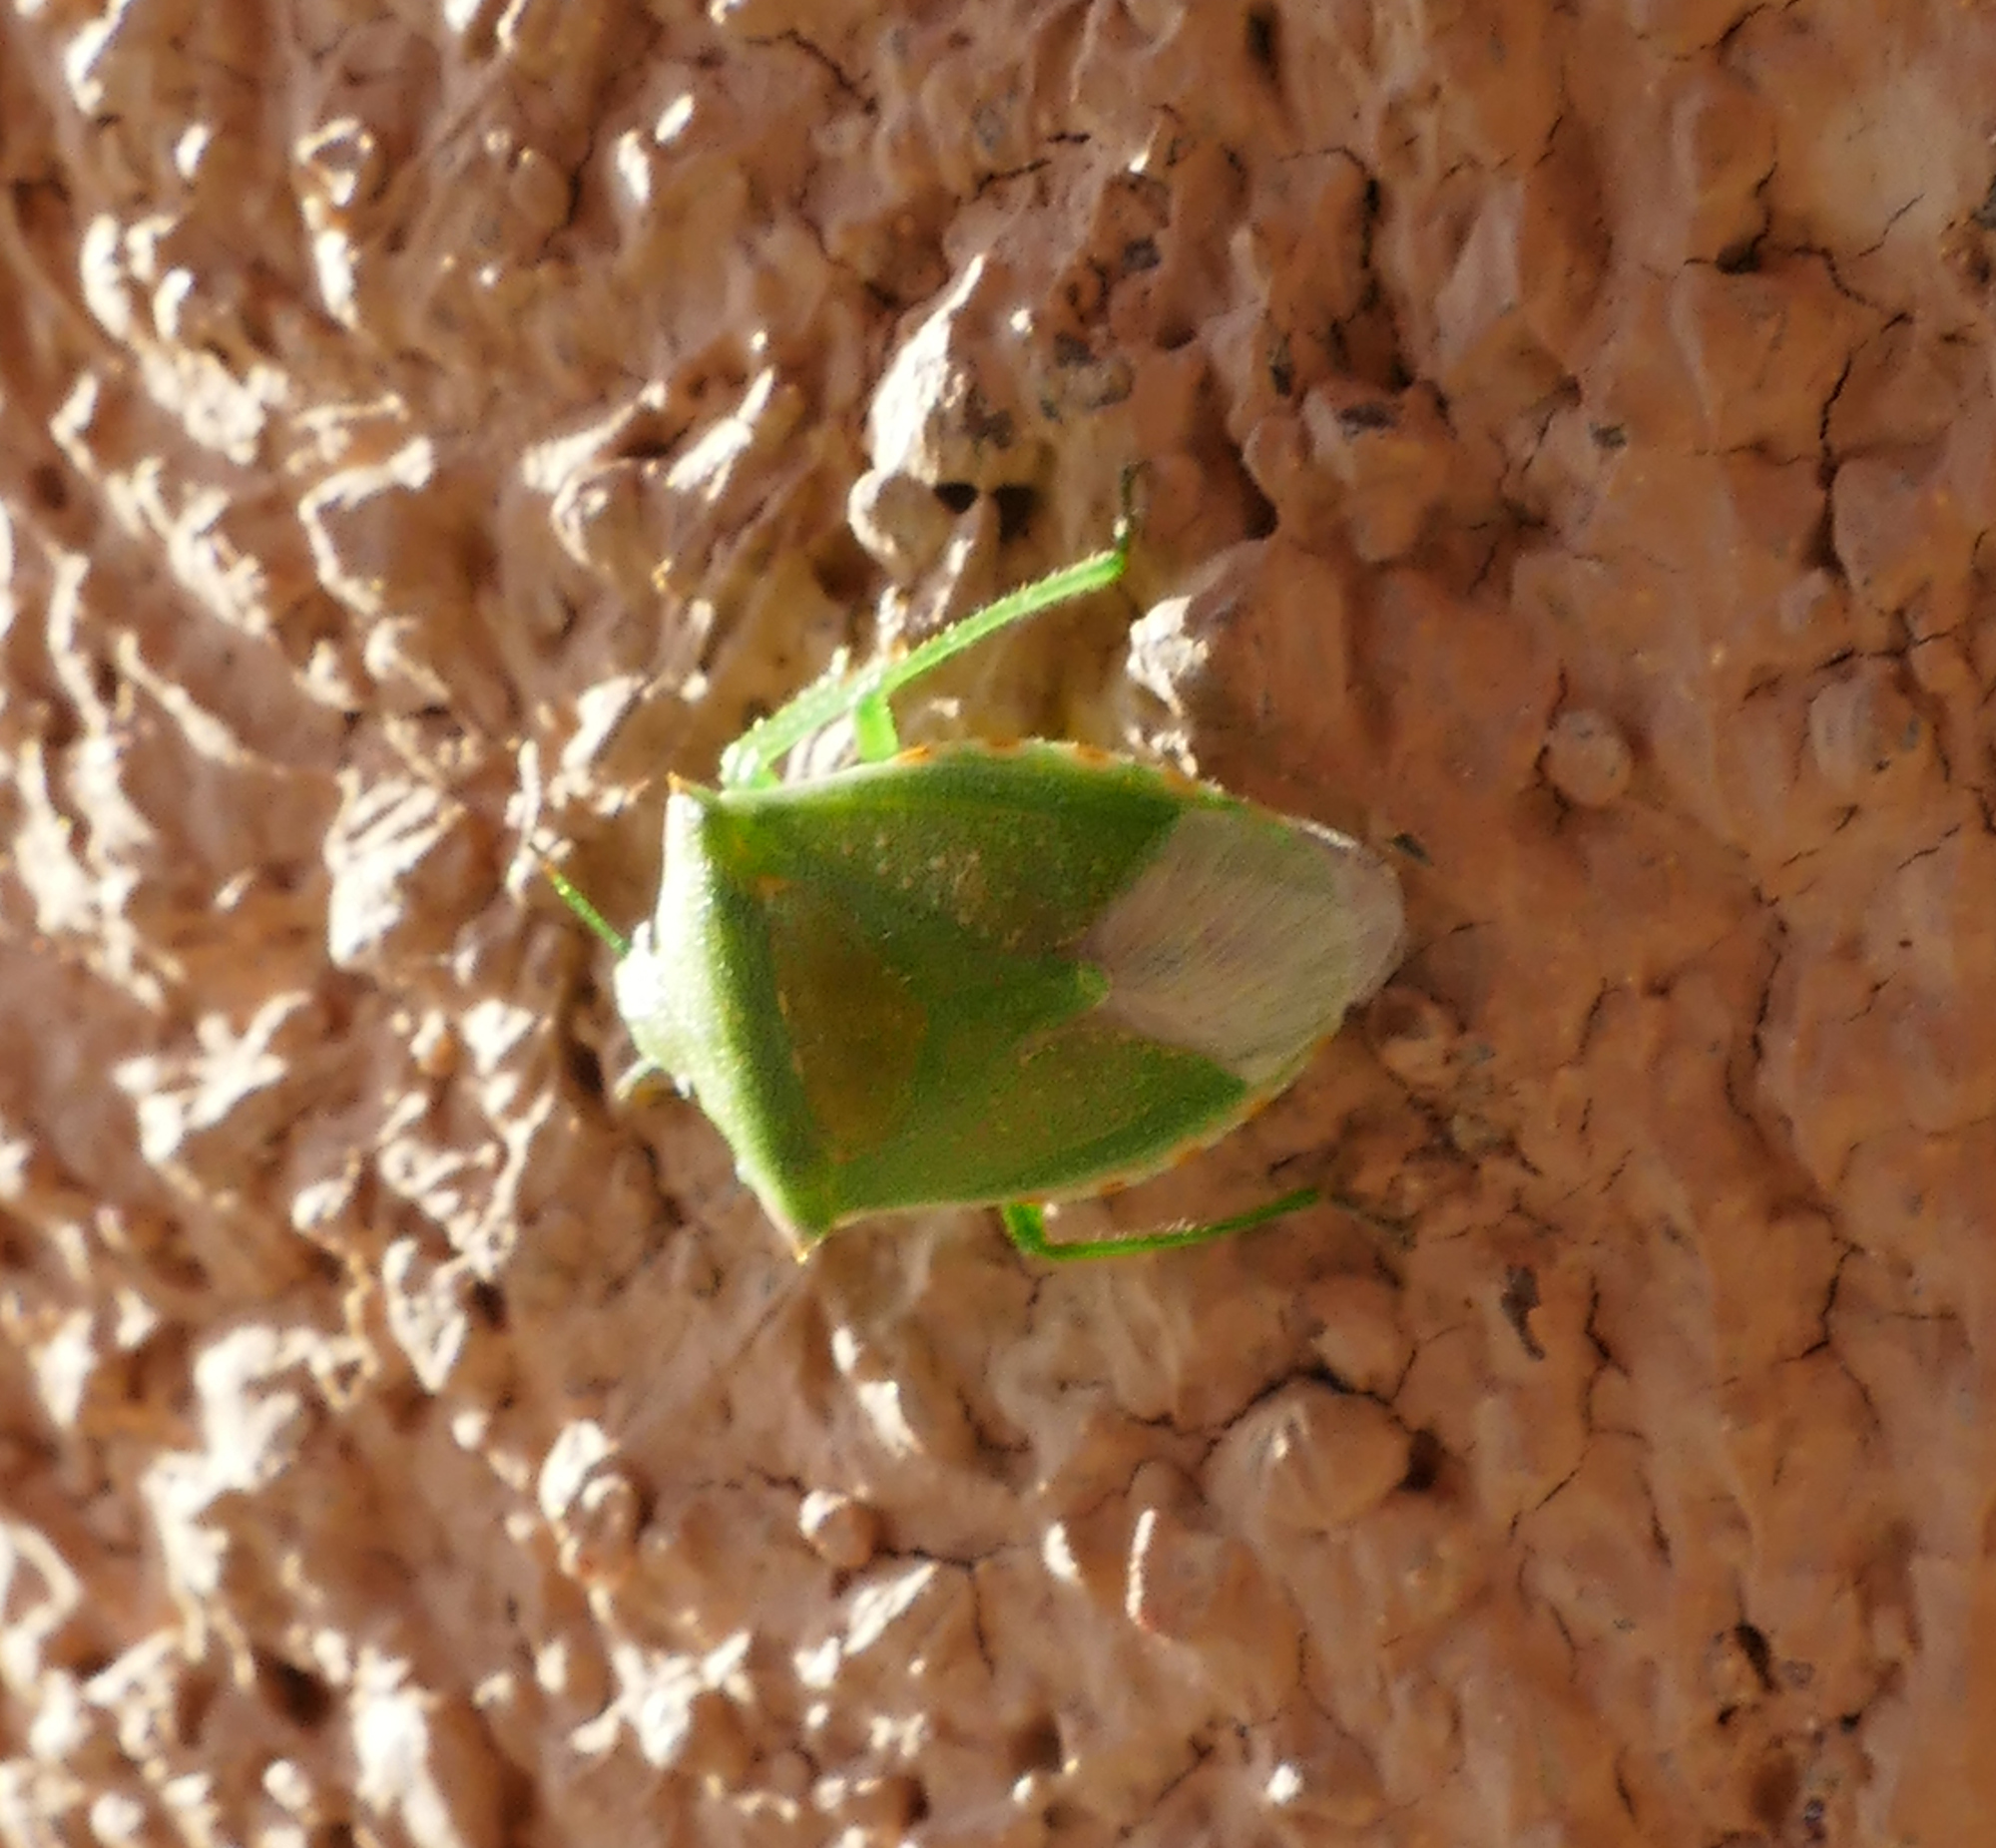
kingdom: Animalia
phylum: Arthropoda
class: Insecta
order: Hemiptera
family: Pentatomidae
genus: Thyanta
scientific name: Thyanta custator
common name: Stink bug
